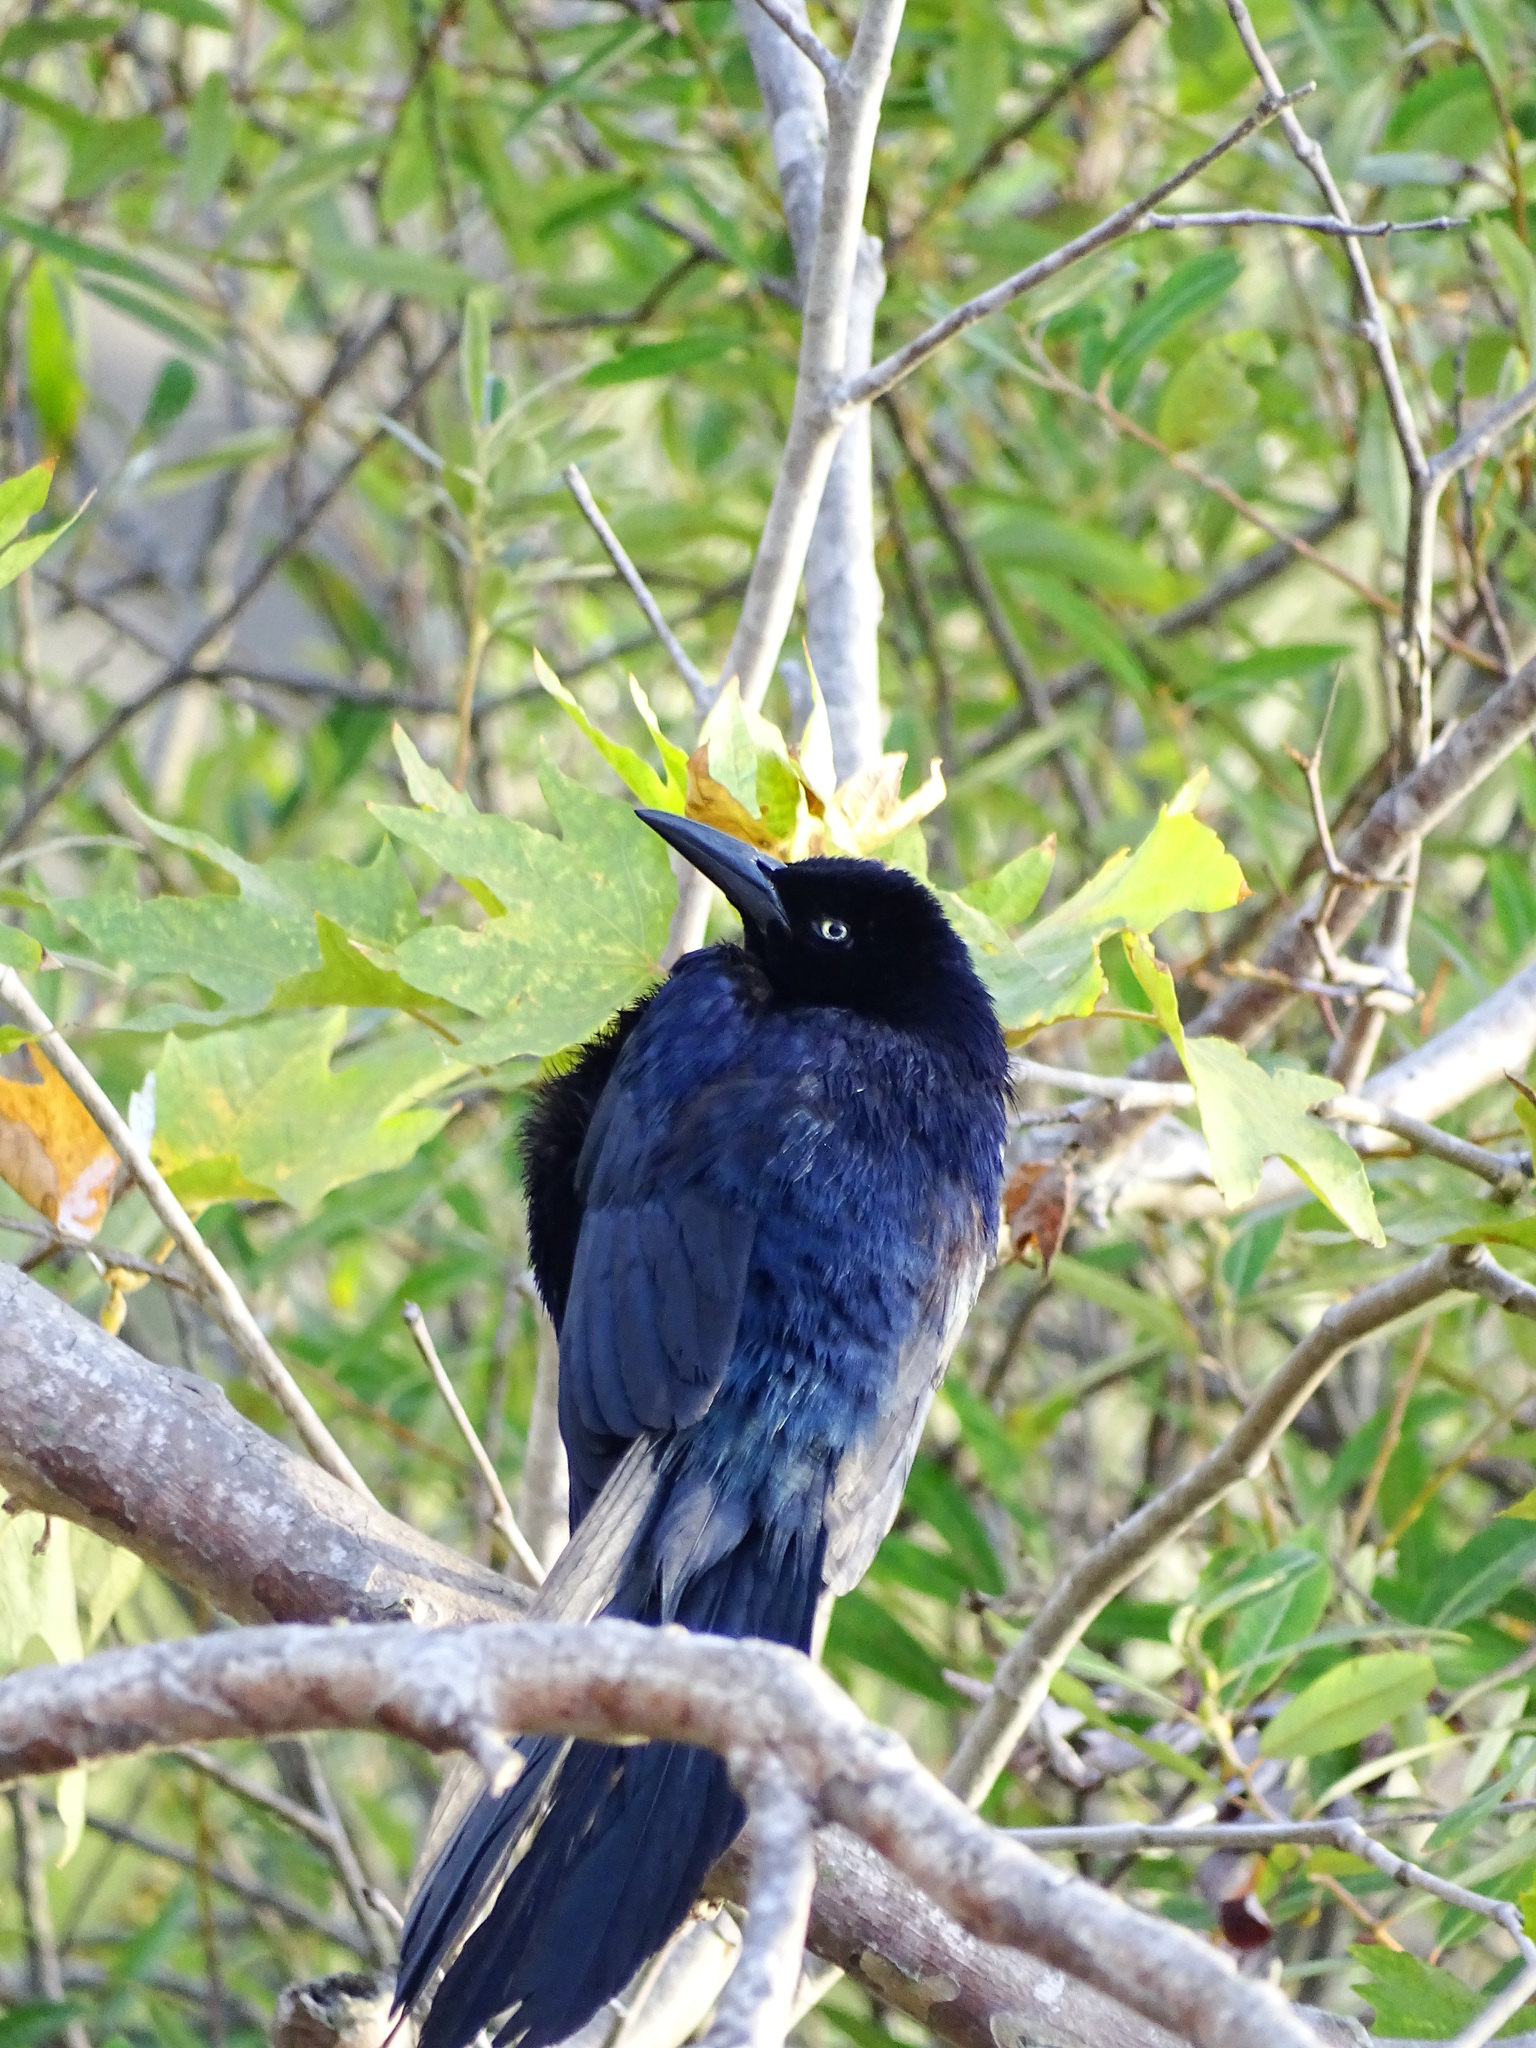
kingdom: Animalia
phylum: Chordata
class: Aves
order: Passeriformes
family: Icteridae
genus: Quiscalus
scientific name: Quiscalus mexicanus
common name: Great-tailed grackle
